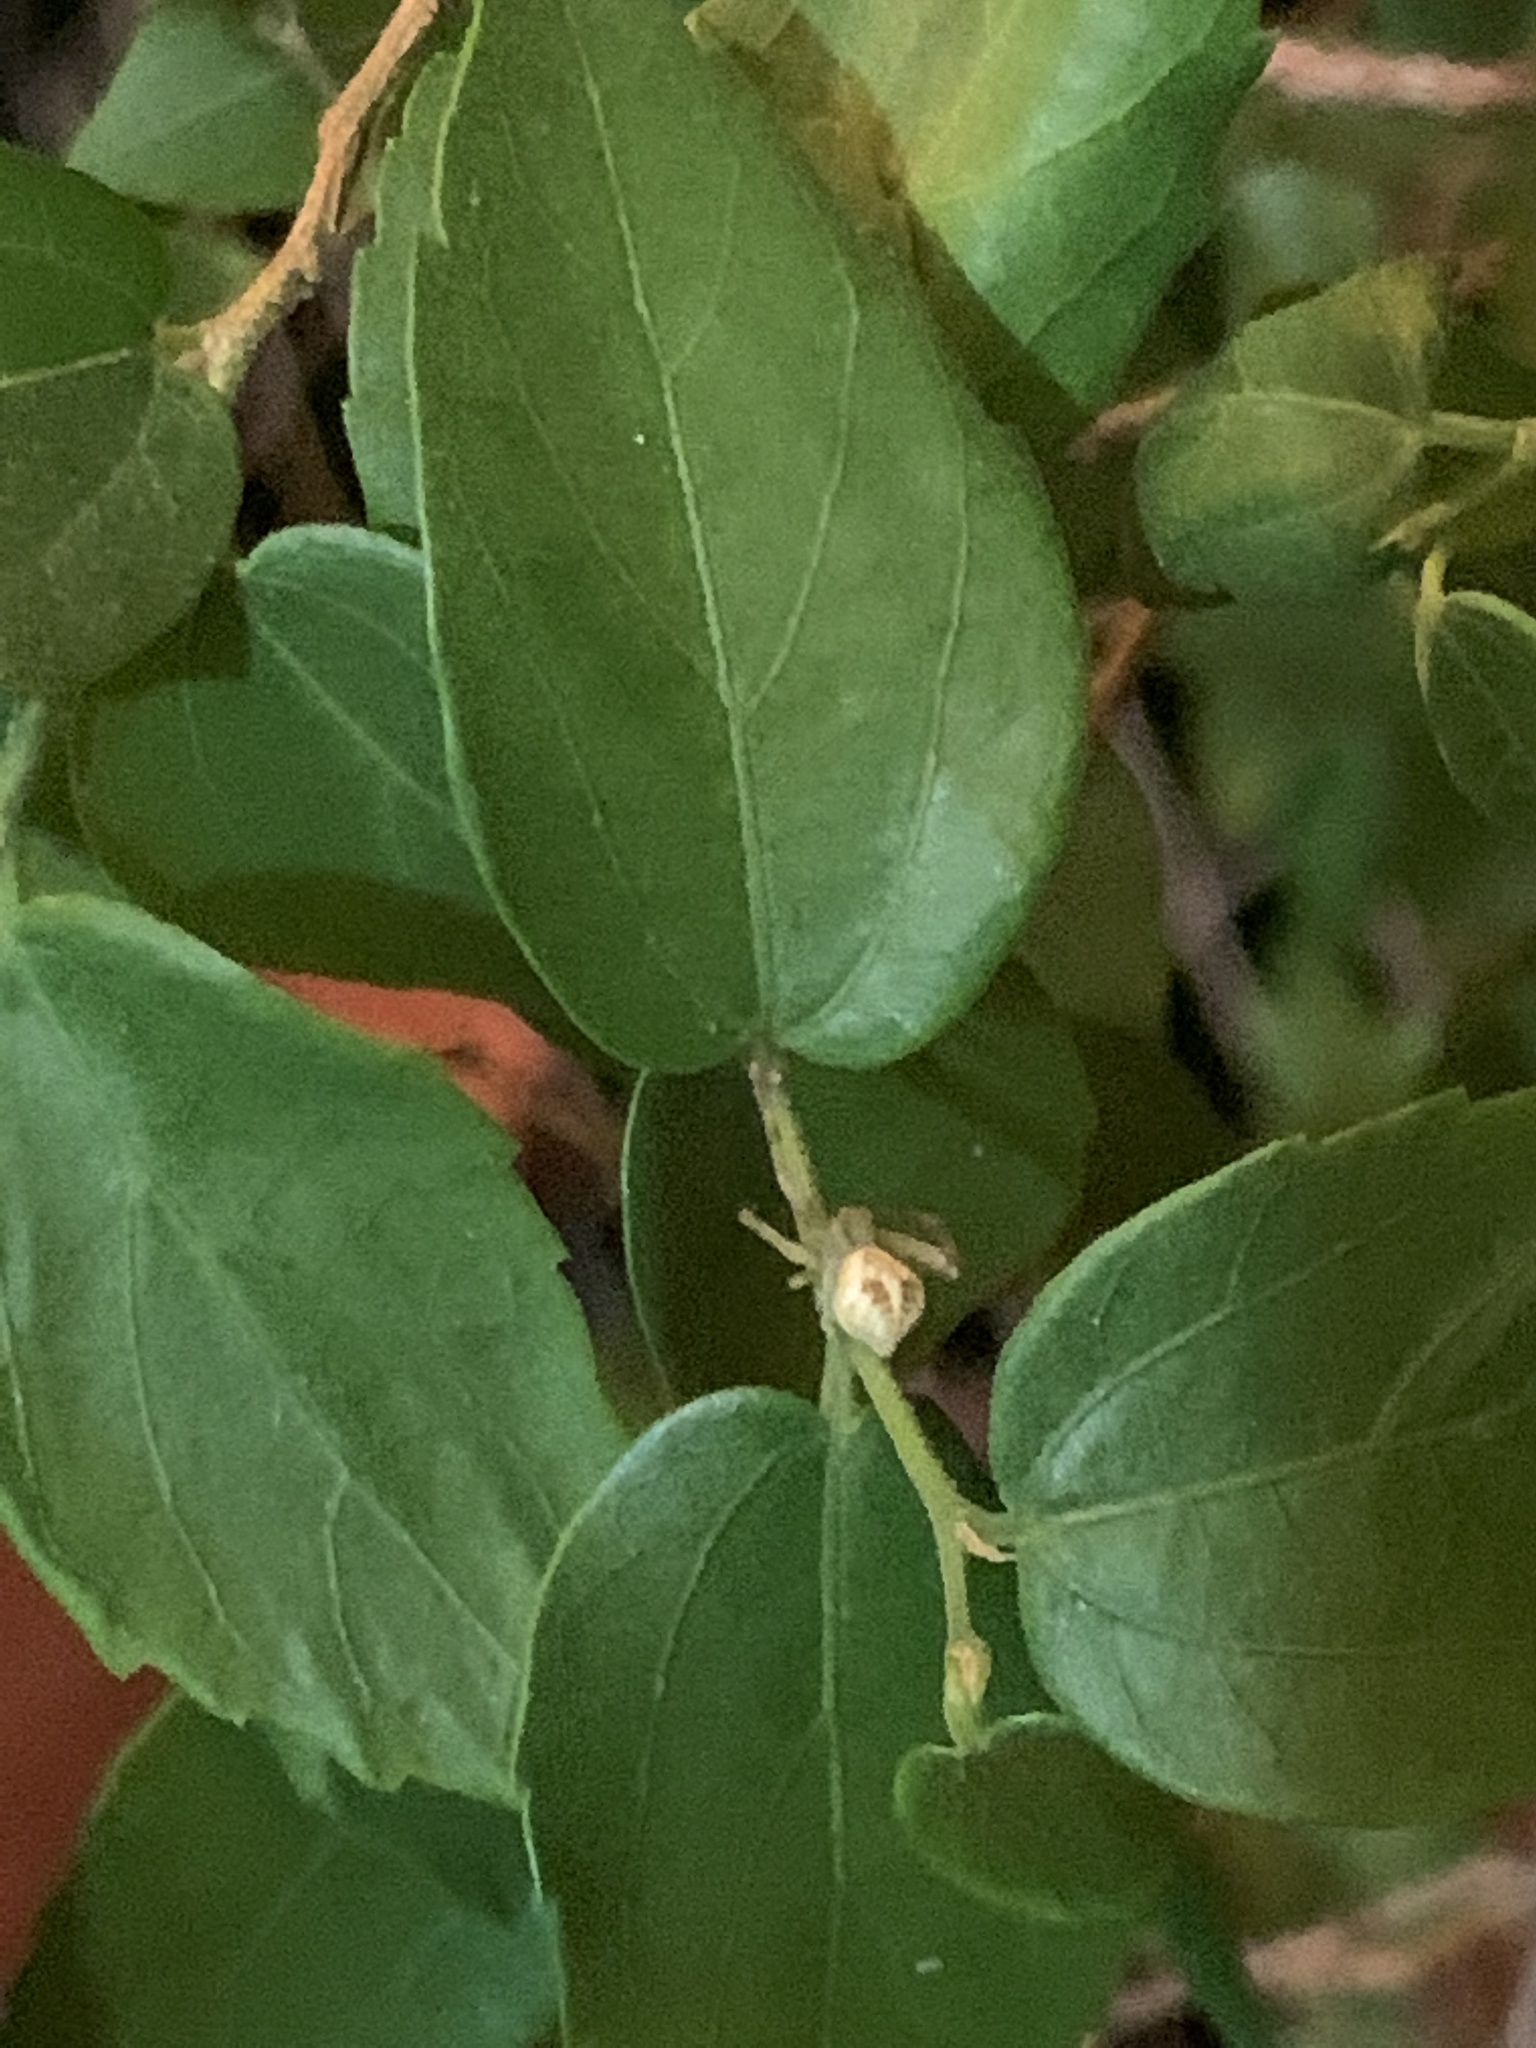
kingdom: Animalia
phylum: Arthropoda
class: Arachnida
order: Araneae
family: Thomisidae
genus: Misumenops
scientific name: Misumenops
